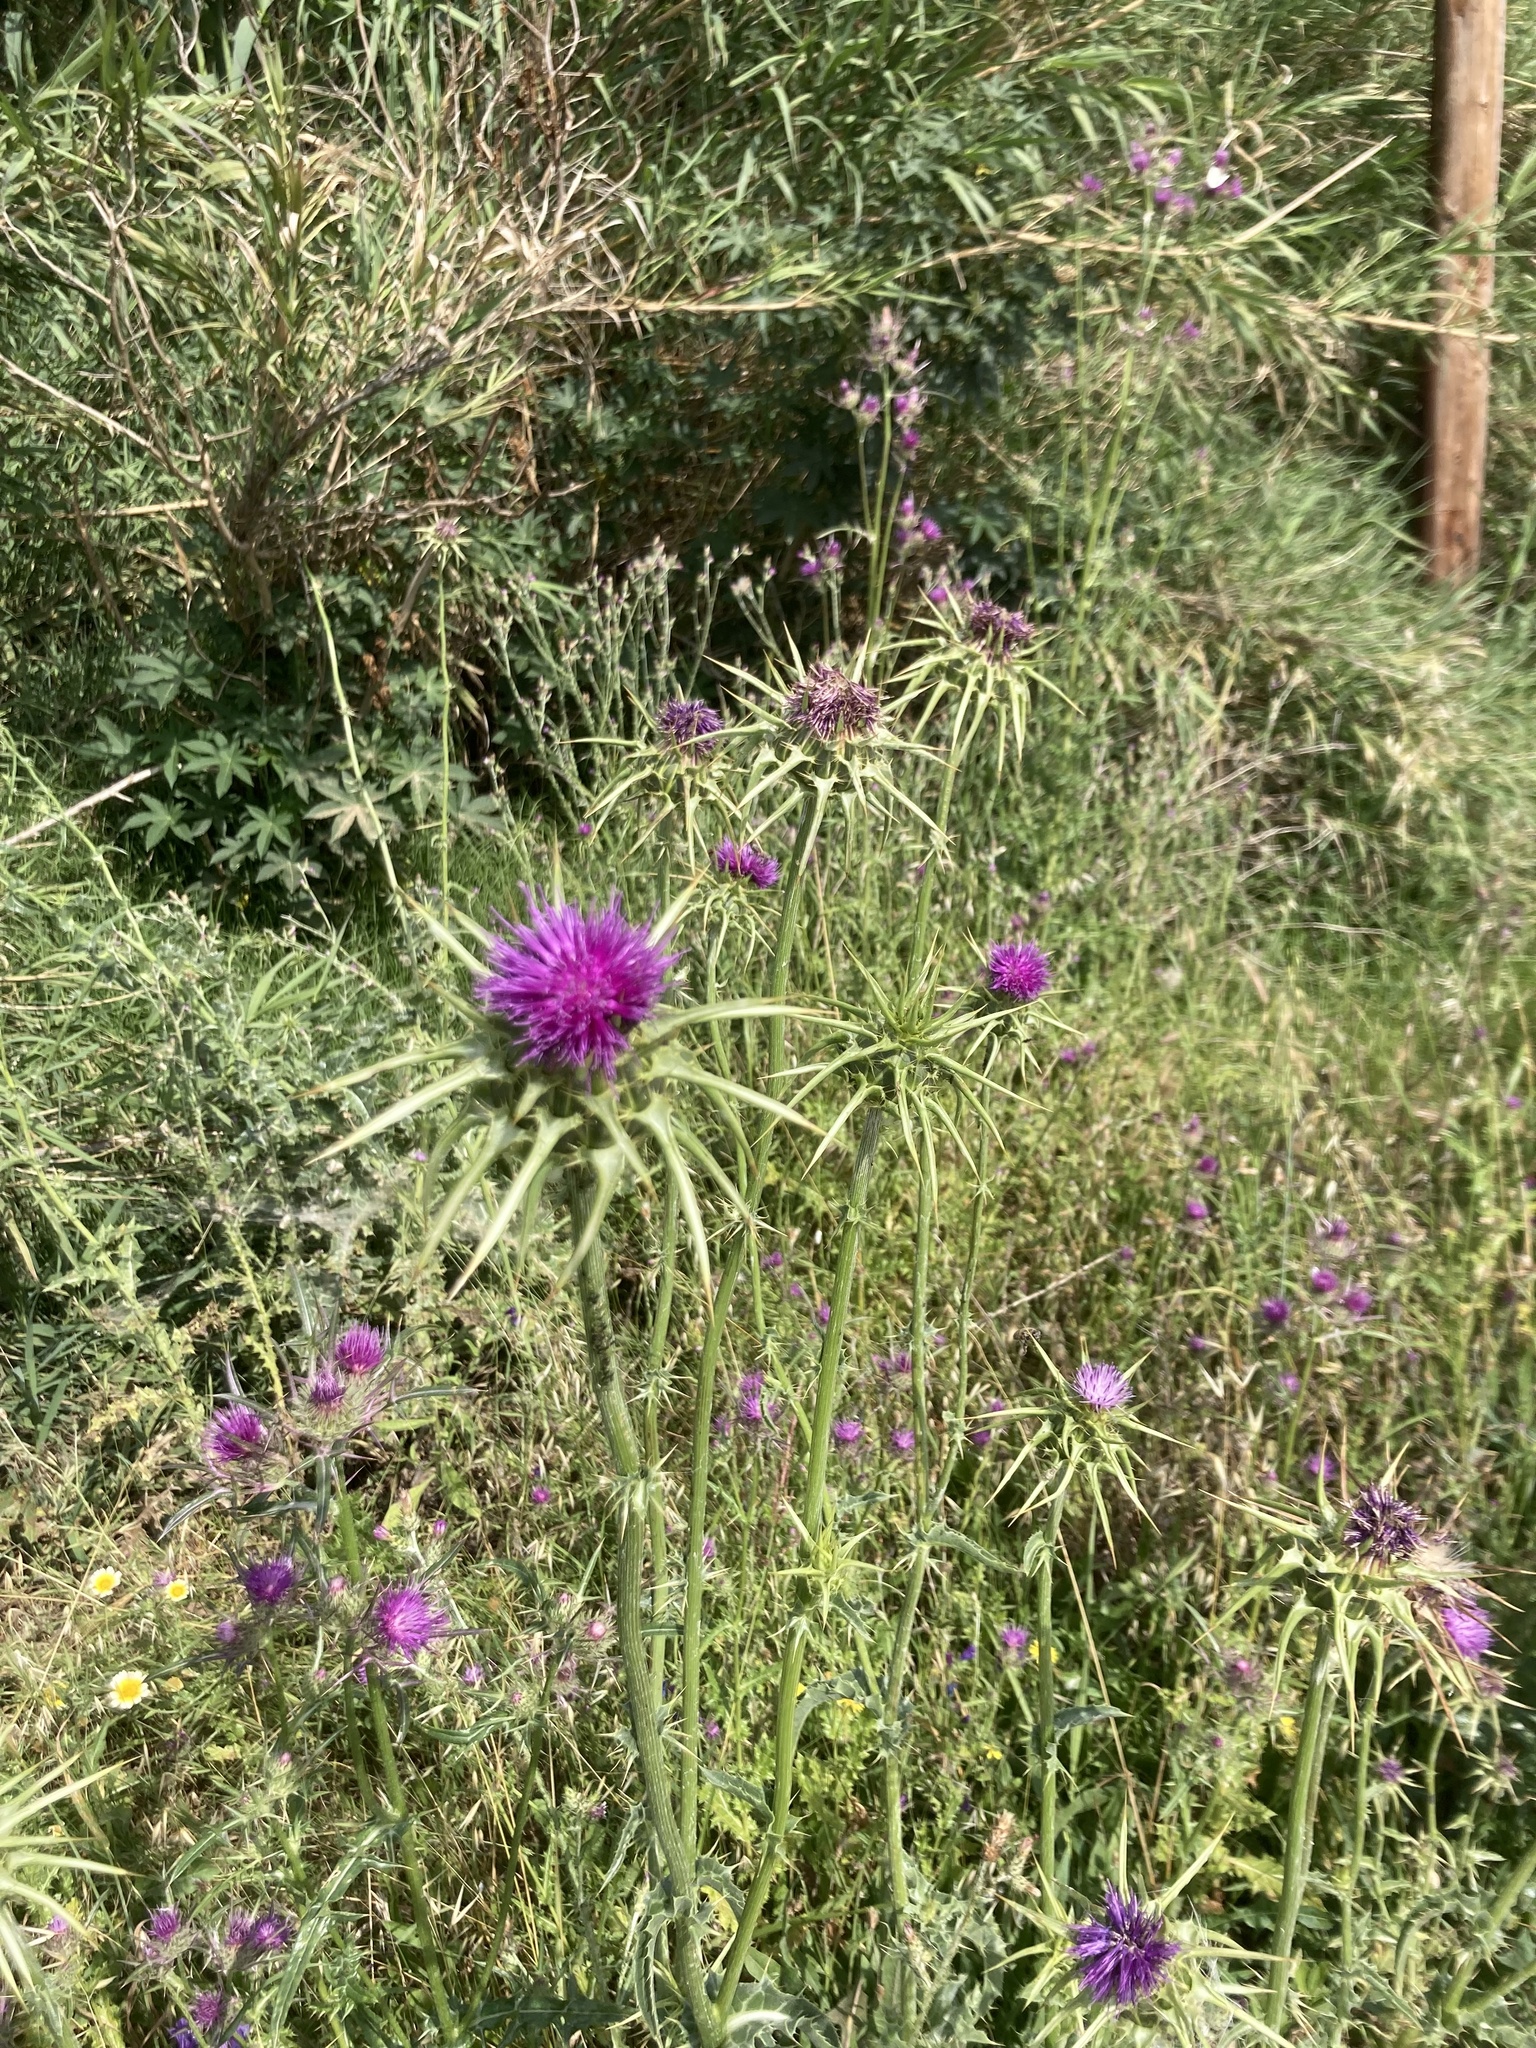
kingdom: Plantae
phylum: Tracheophyta
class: Magnoliopsida
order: Asterales
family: Asteraceae
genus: Silybum
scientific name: Silybum marianum
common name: Milk thistle
